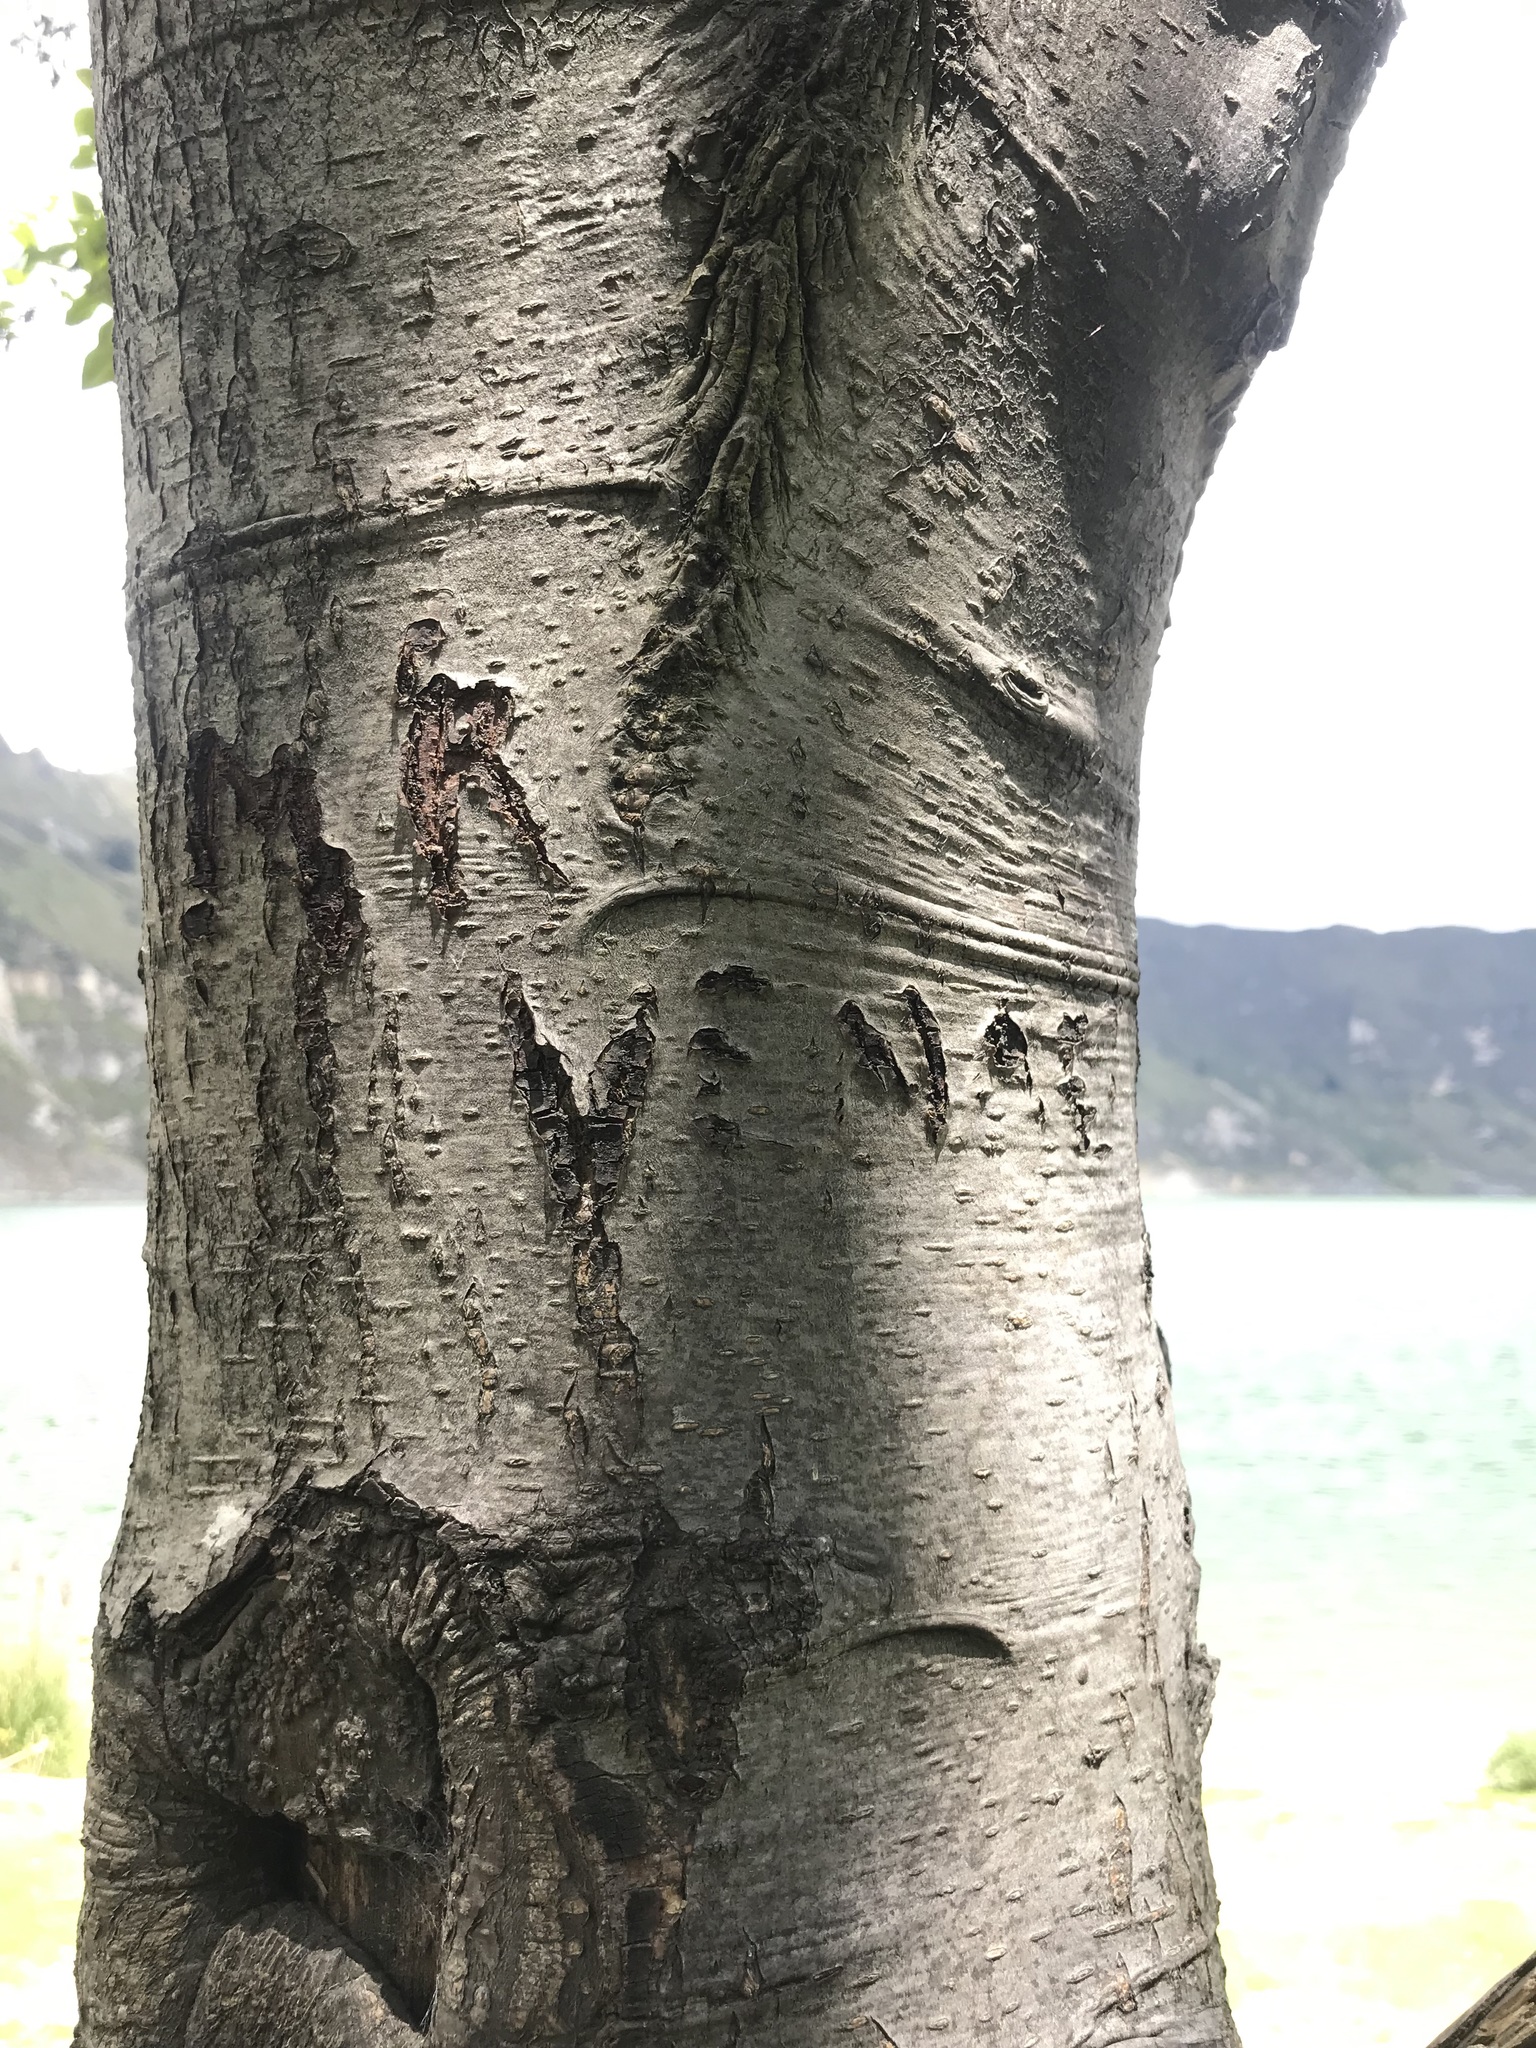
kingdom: Plantae
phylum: Tracheophyta
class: Magnoliopsida
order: Fagales
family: Betulaceae
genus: Alnus
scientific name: Alnus acuminata
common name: Alder
